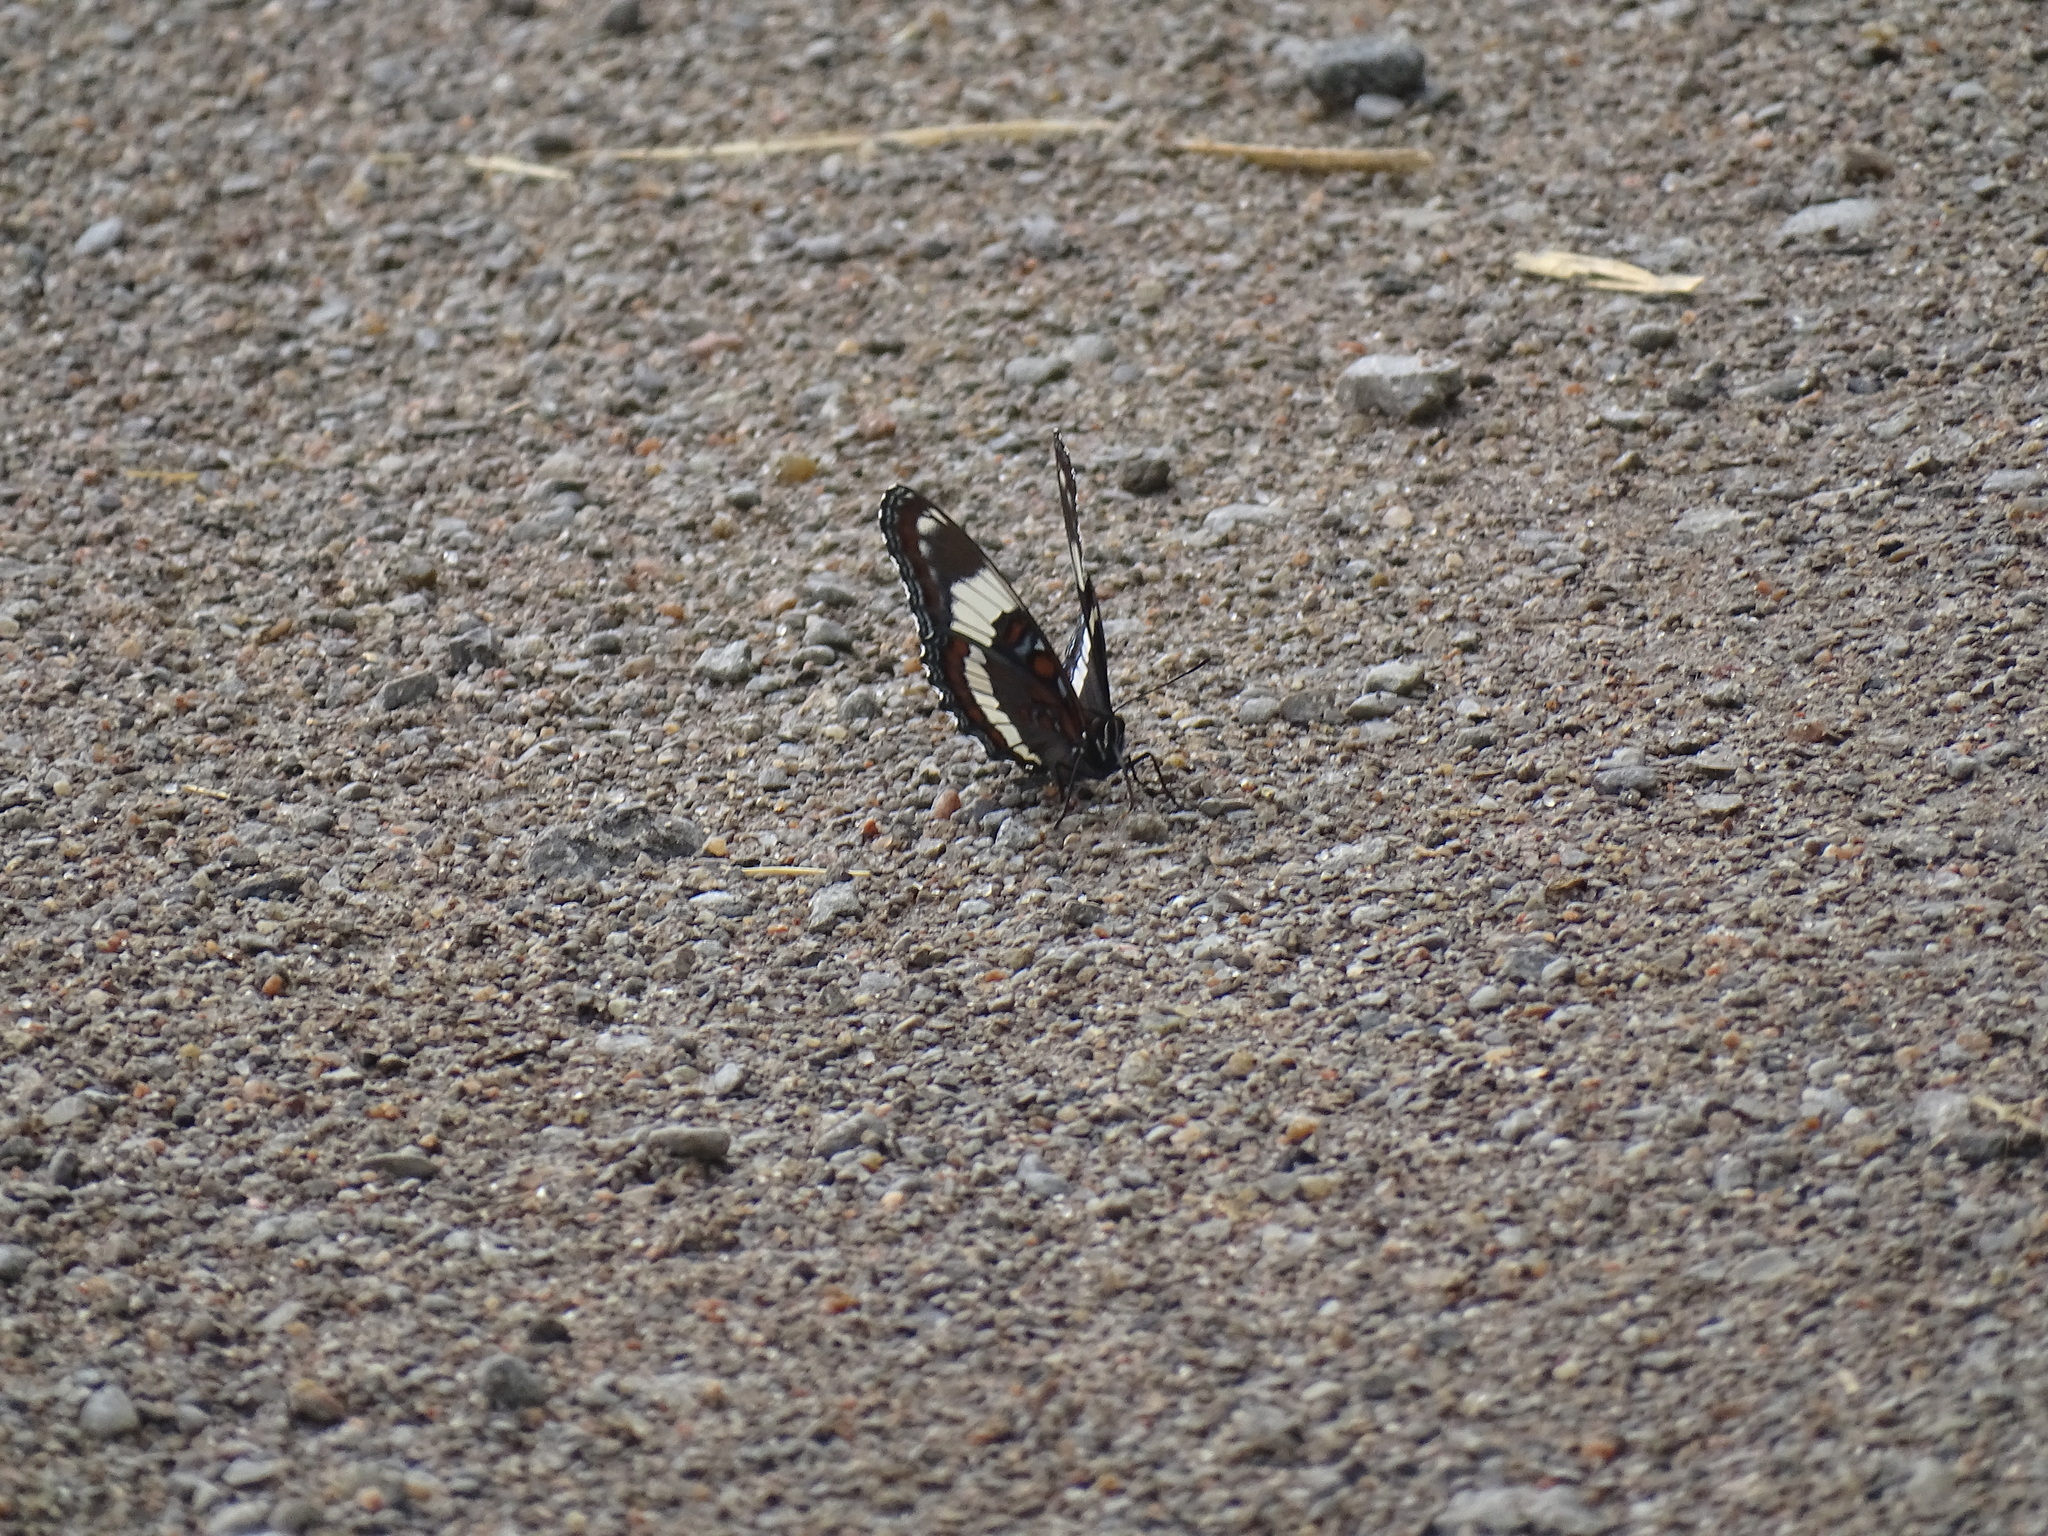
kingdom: Animalia
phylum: Arthropoda
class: Insecta
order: Lepidoptera
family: Nymphalidae
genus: Limenitis
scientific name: Limenitis arthemis
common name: Red-spotted admiral
